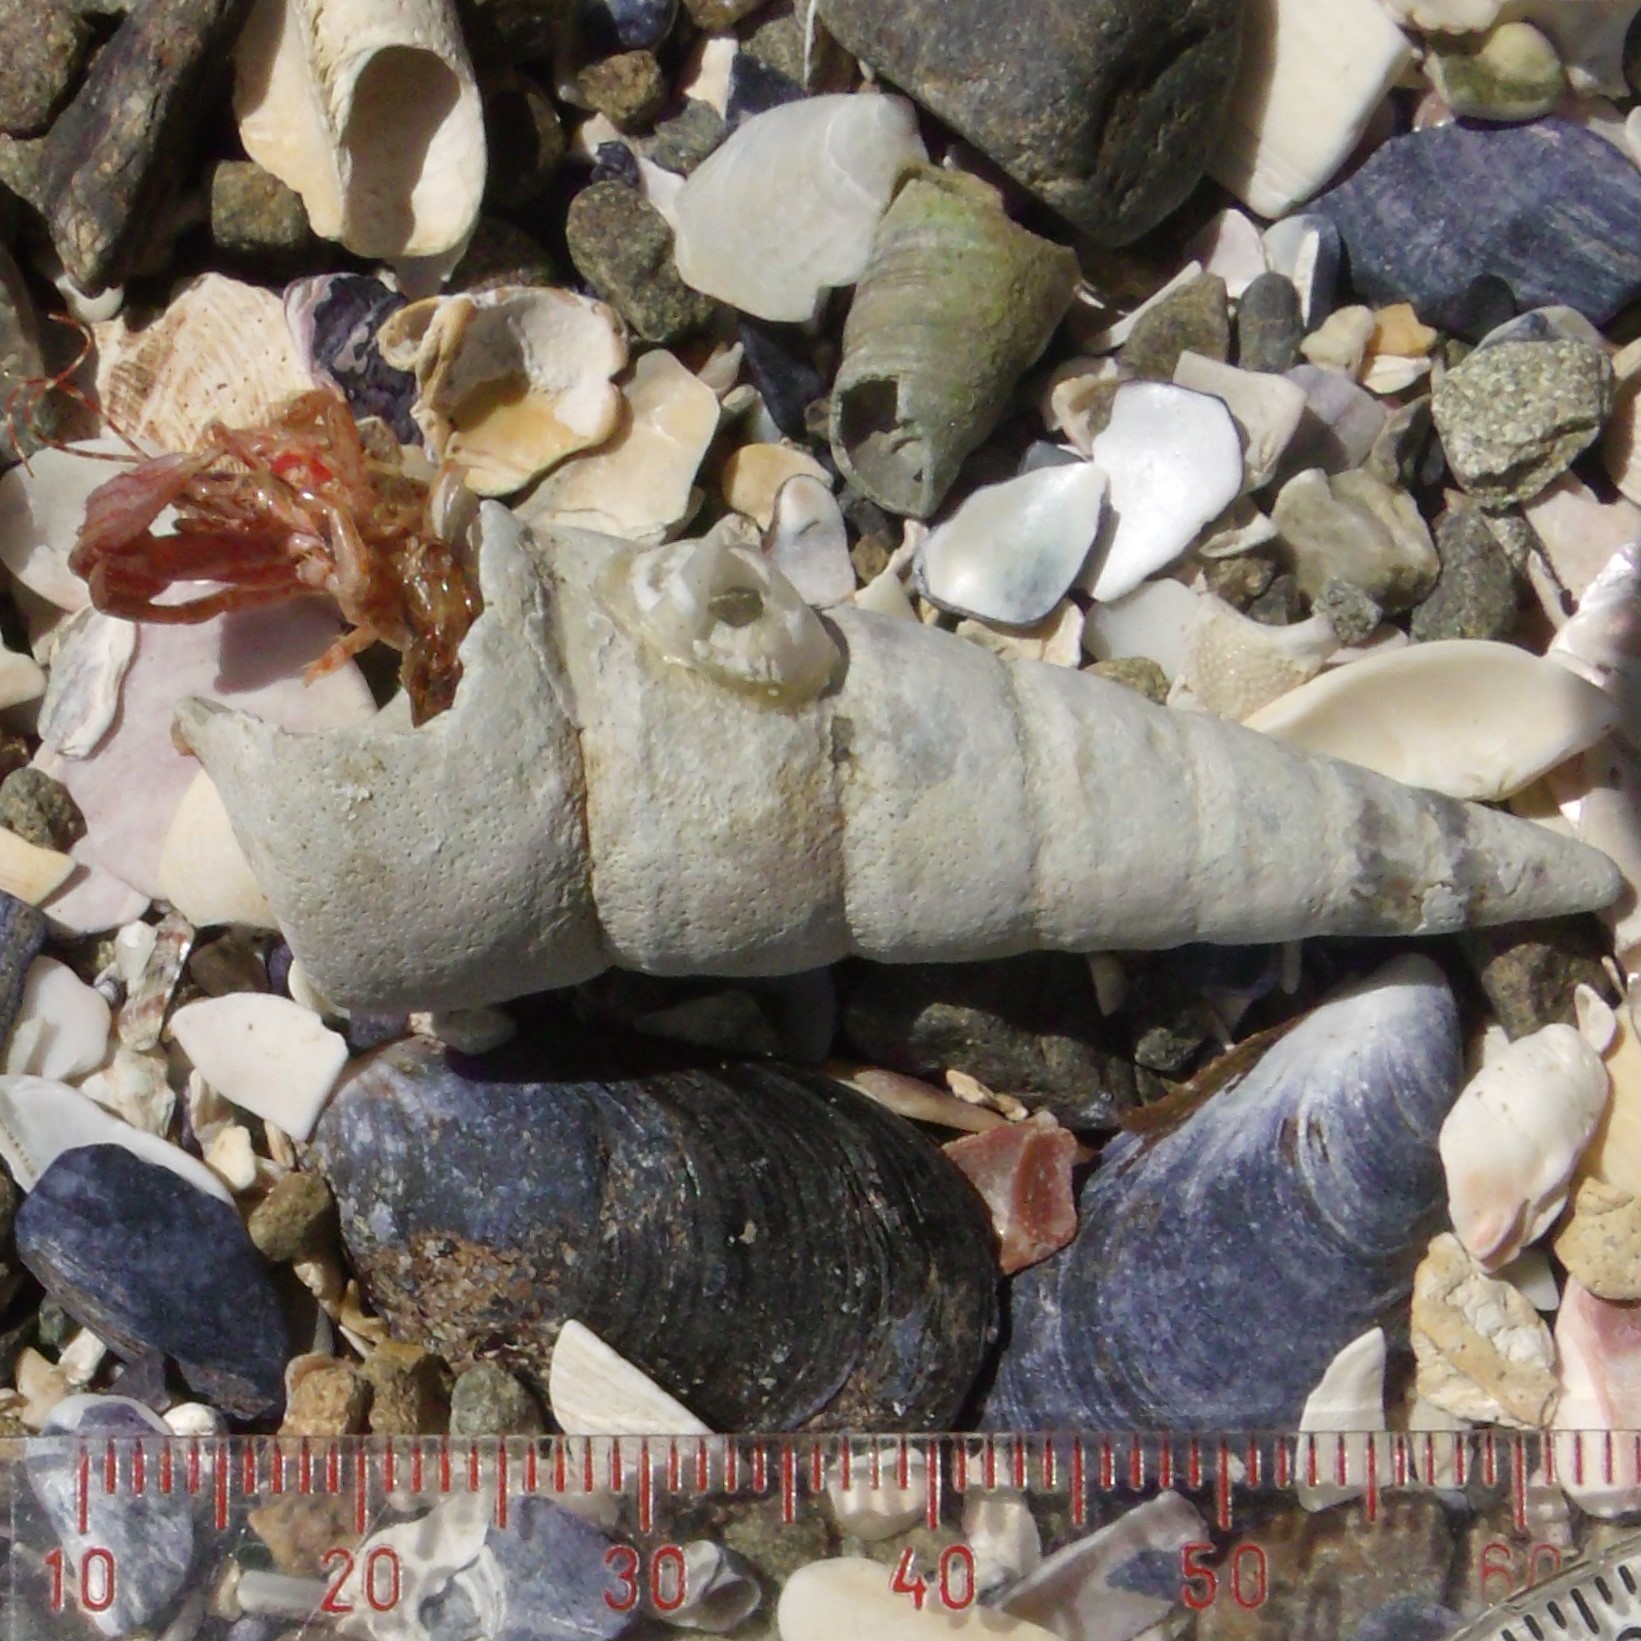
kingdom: Animalia
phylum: Arthropoda
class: Malacostraca
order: Decapoda
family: Paguridae
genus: Lophopagurus
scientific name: Lophopagurus thompsoni
